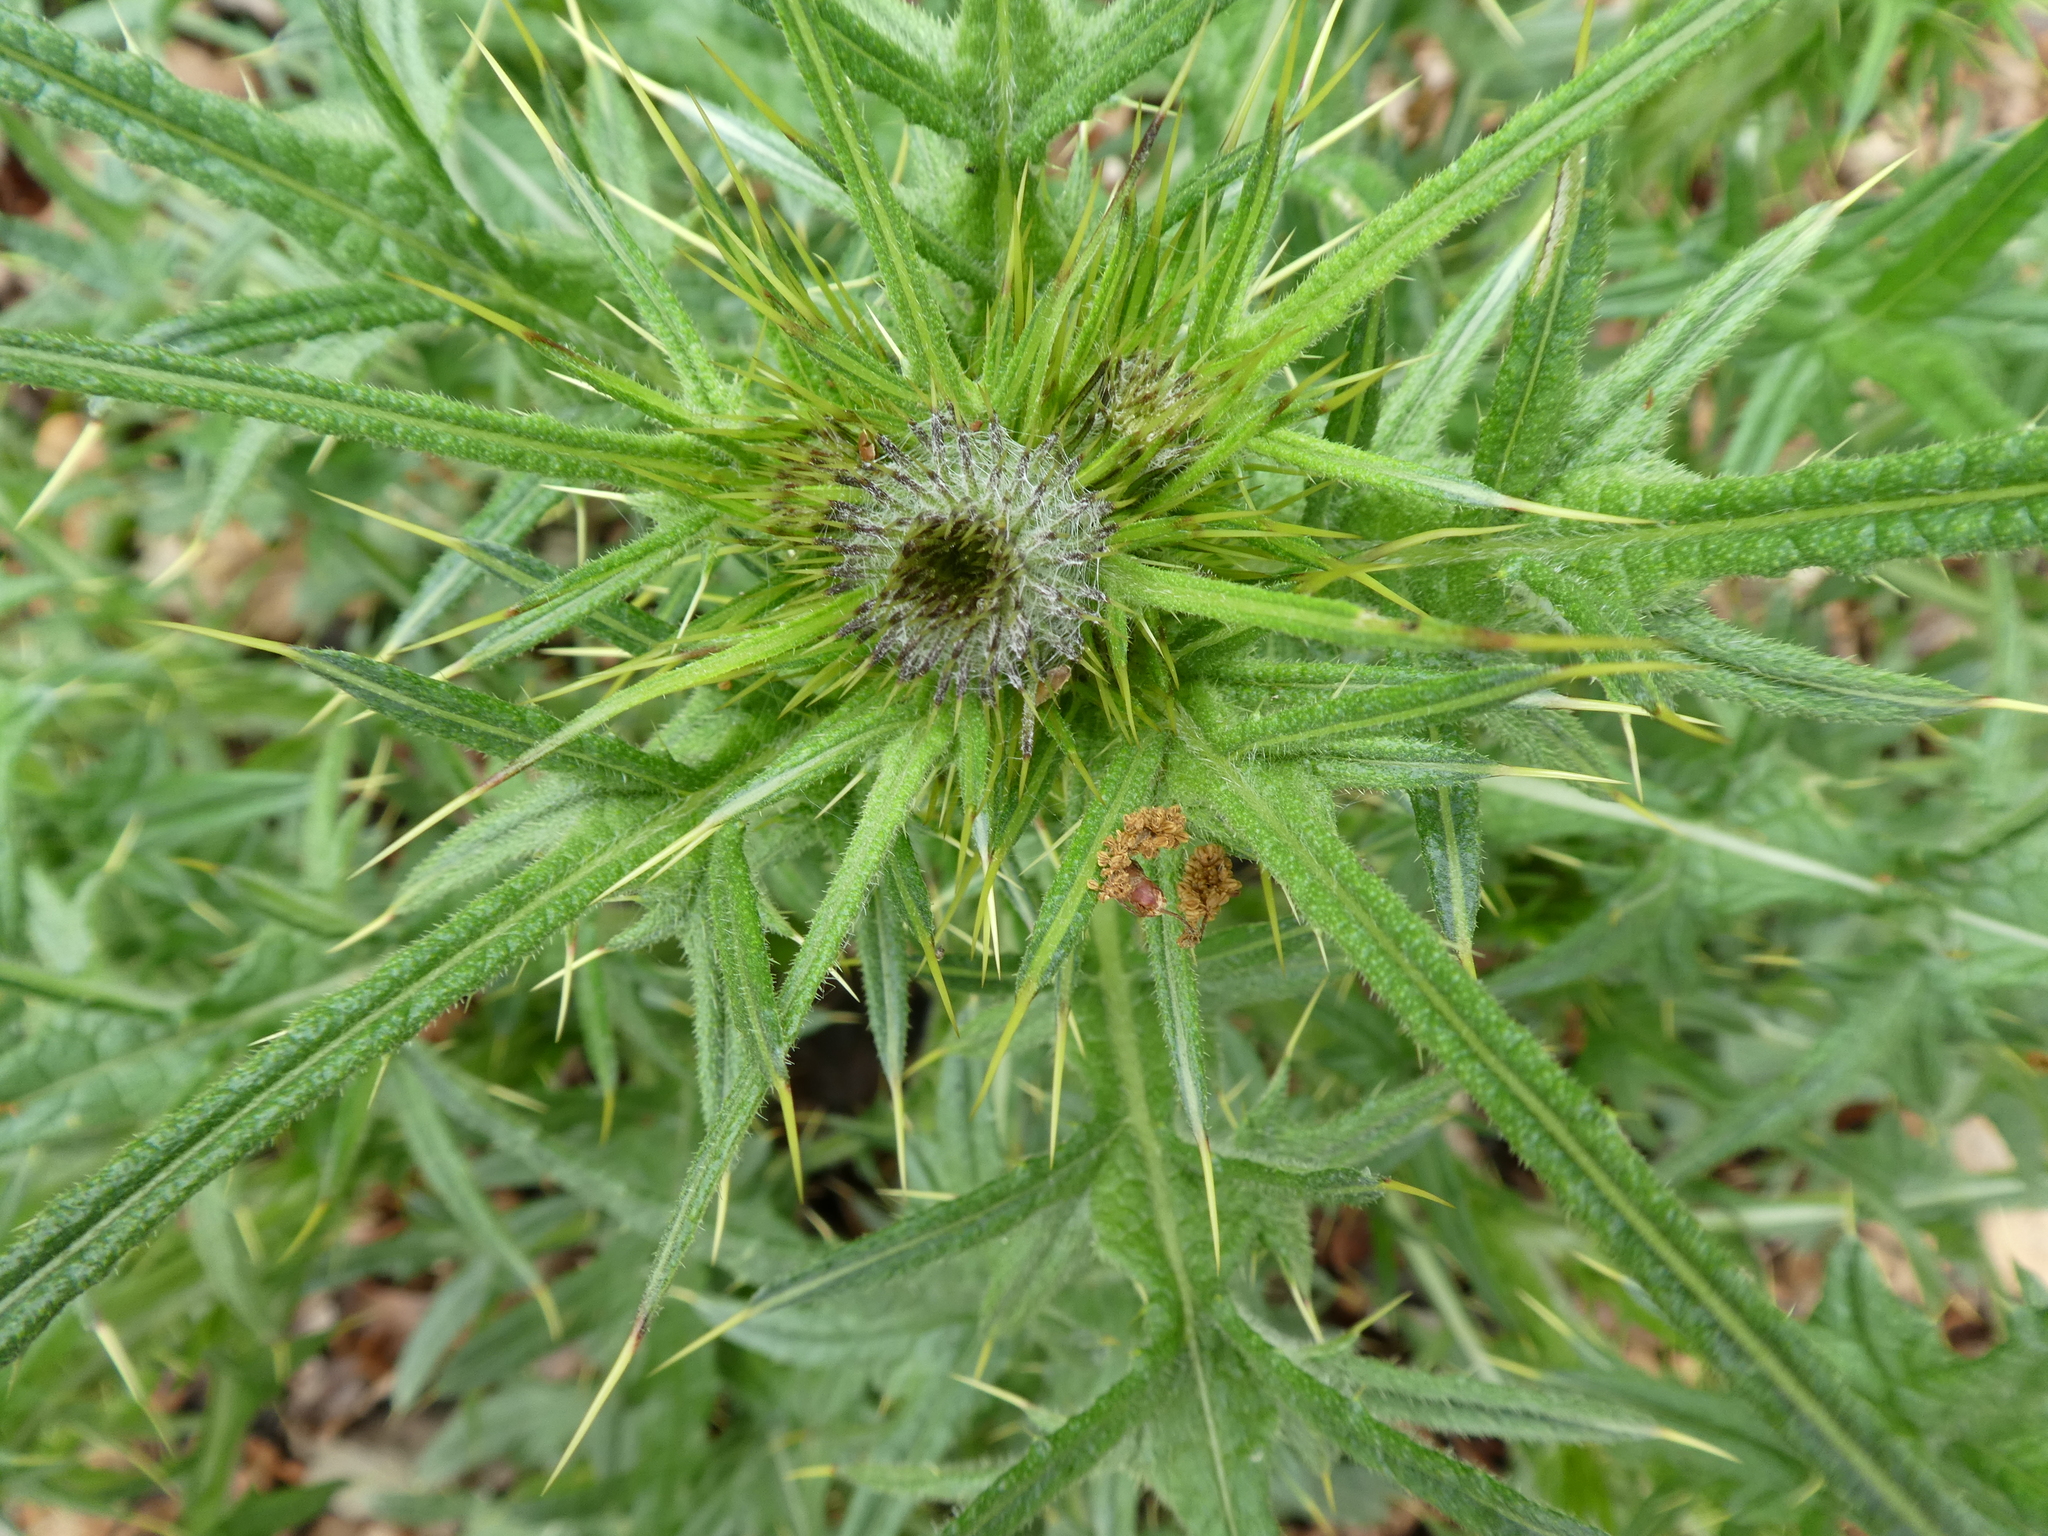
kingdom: Plantae
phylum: Tracheophyta
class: Magnoliopsida
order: Asterales
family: Asteraceae
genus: Cirsium
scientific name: Cirsium vulgare
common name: Bull thistle
